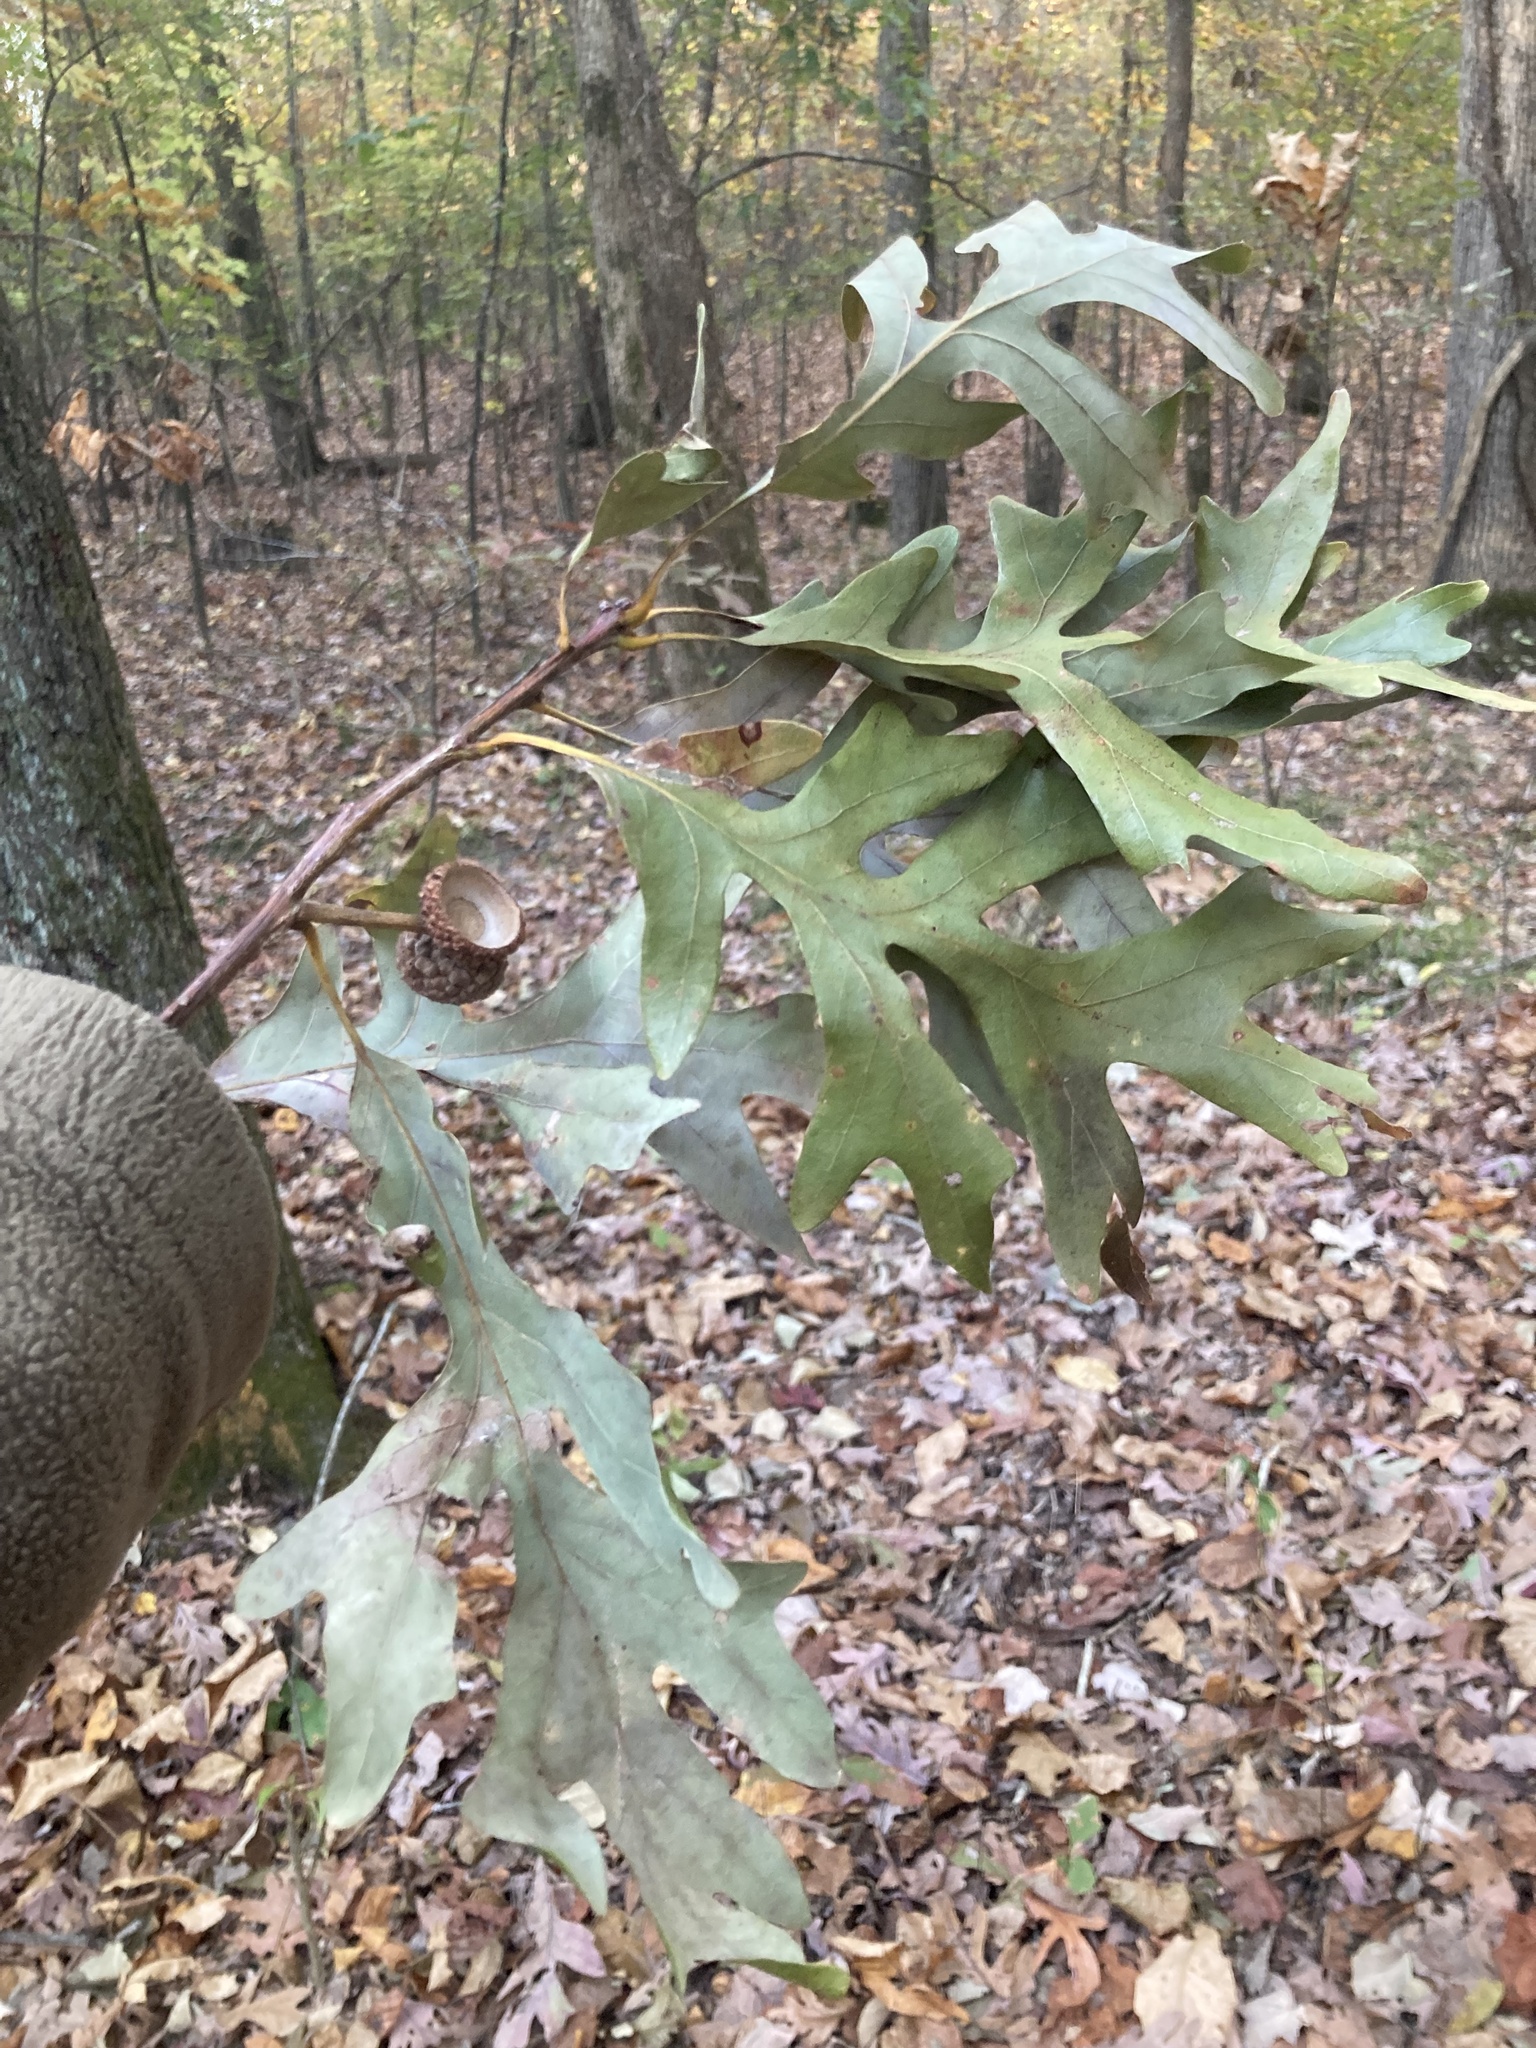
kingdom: Plantae
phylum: Tracheophyta
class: Magnoliopsida
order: Fagales
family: Fagaceae
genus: Quercus
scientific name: Quercus alba
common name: White oak
